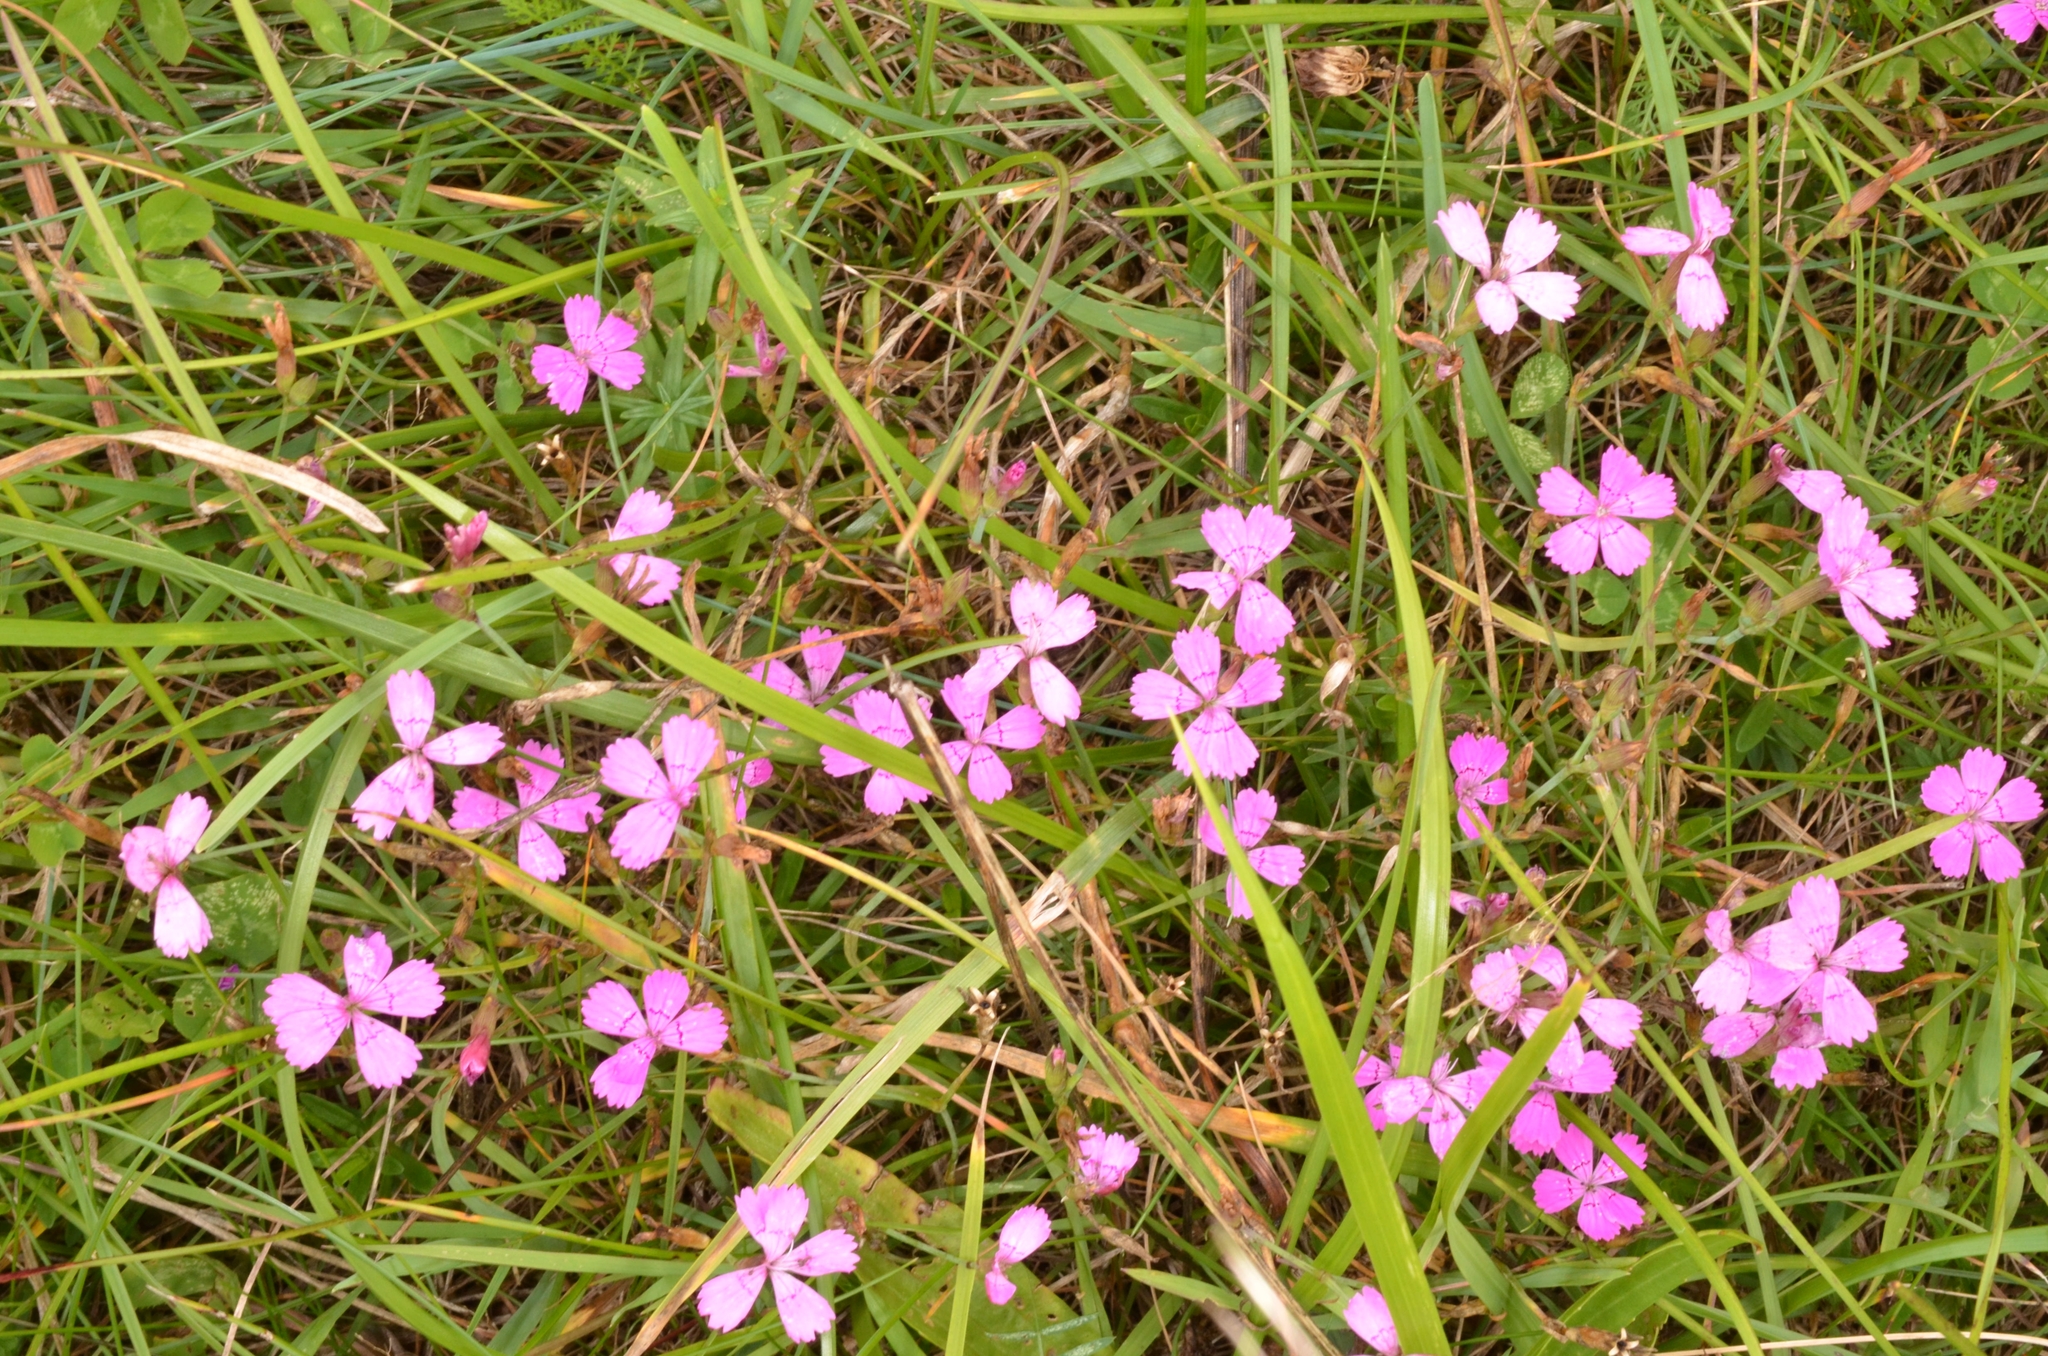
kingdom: Plantae
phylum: Tracheophyta
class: Magnoliopsida
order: Caryophyllales
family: Caryophyllaceae
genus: Dianthus
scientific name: Dianthus deltoides
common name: Maiden pink
